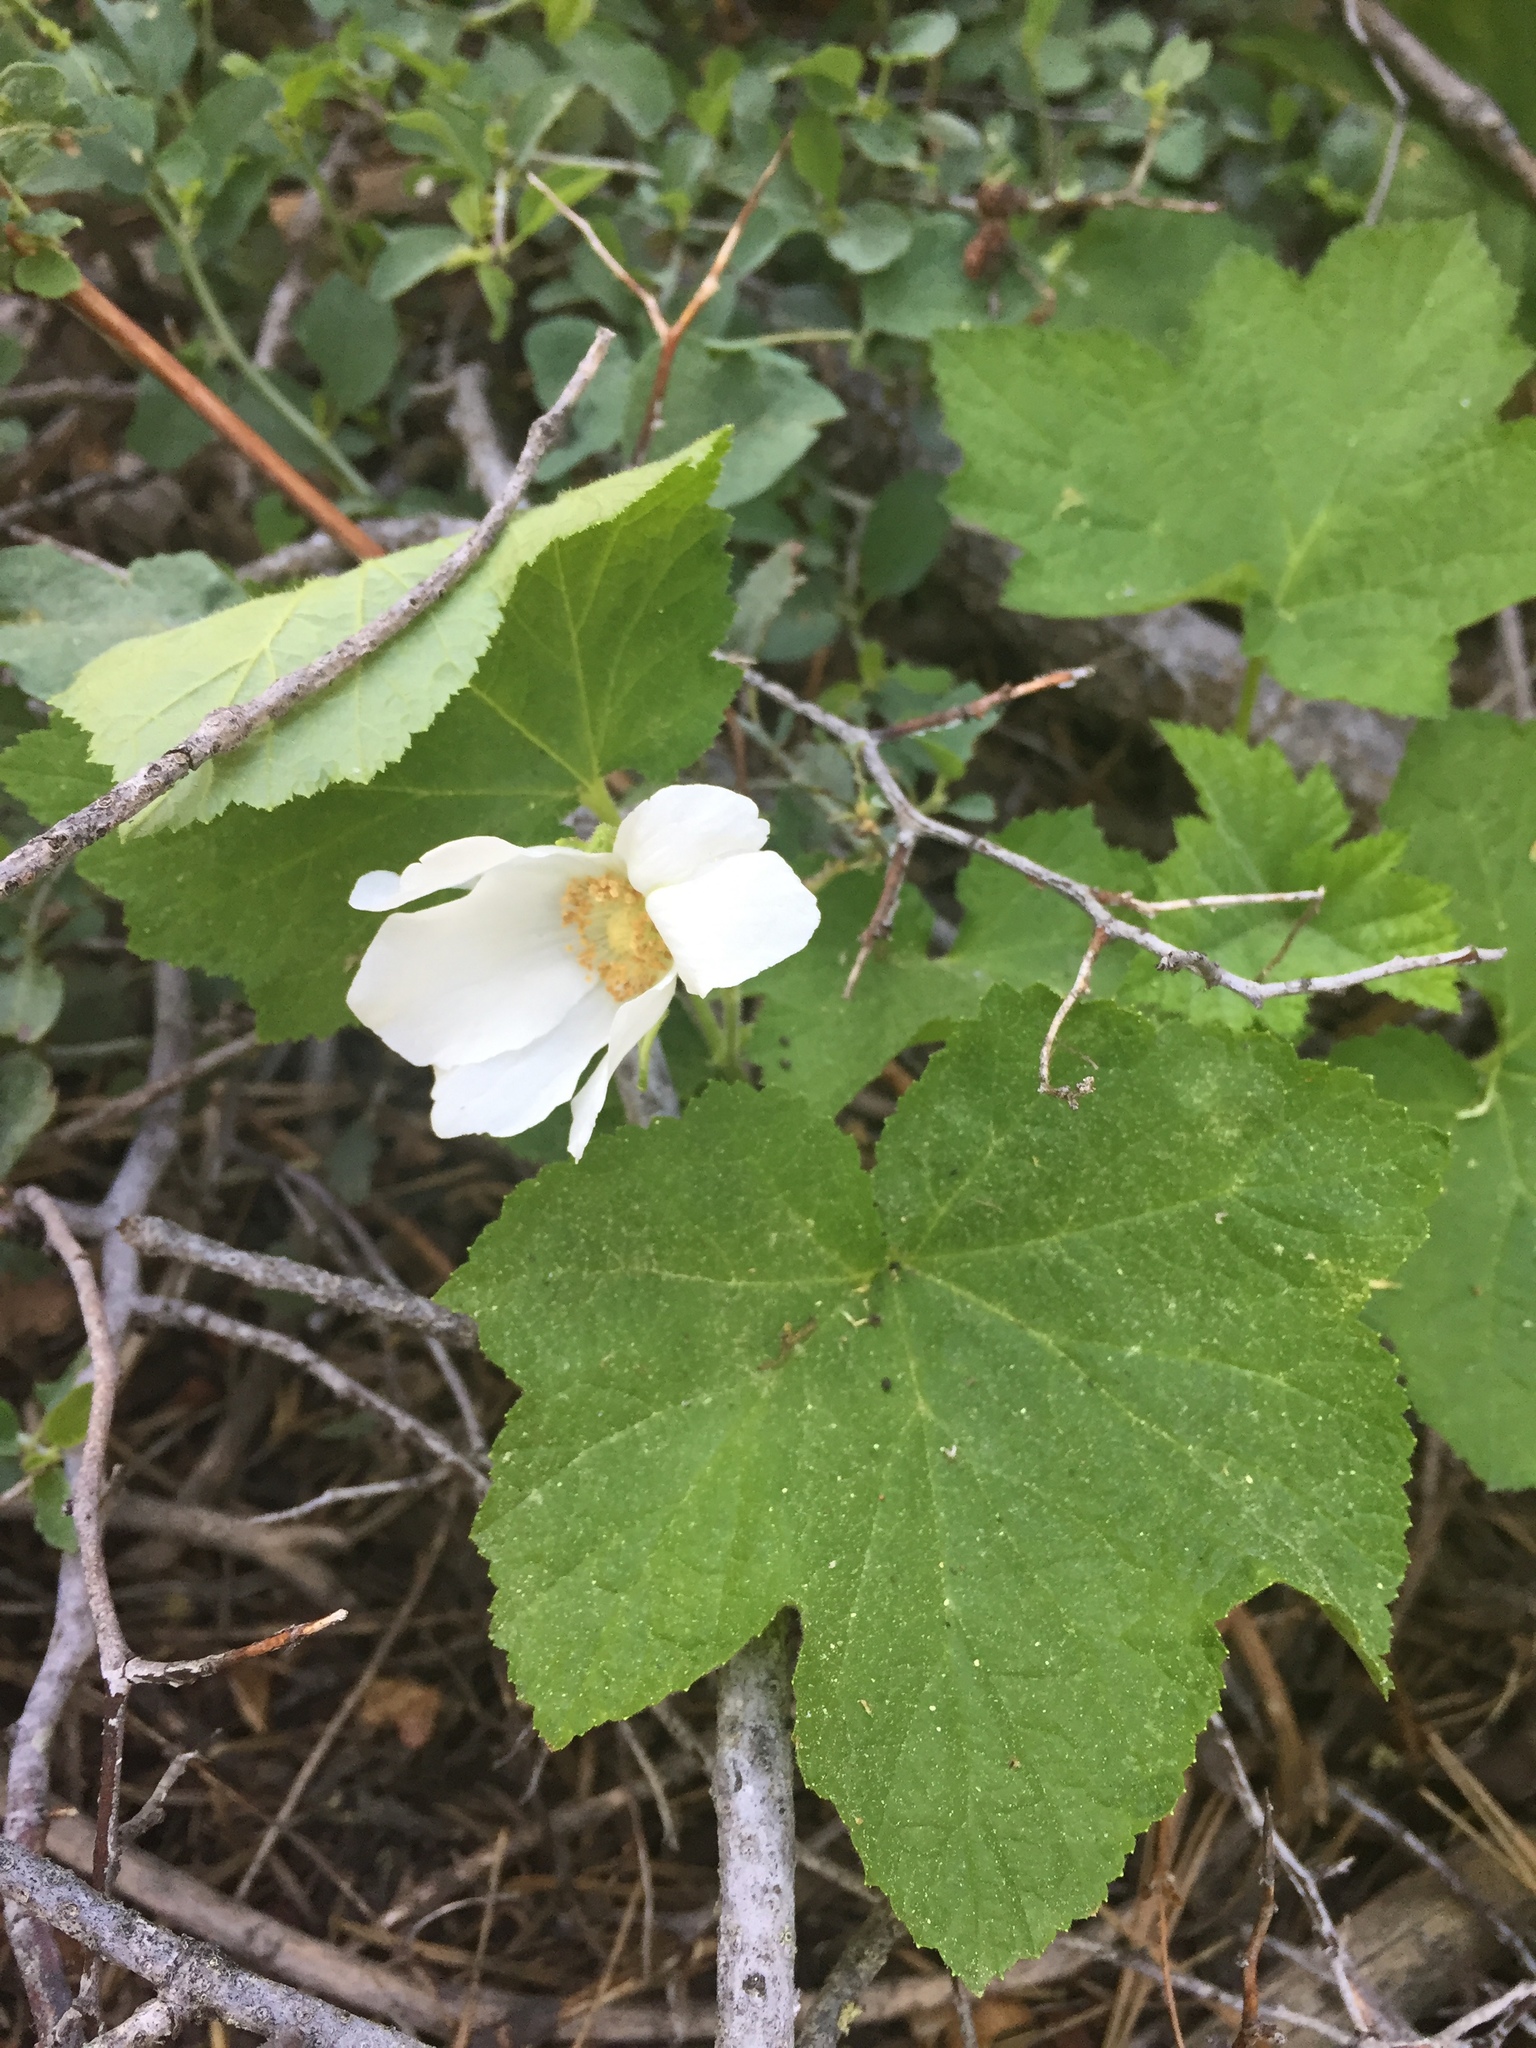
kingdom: Plantae
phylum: Tracheophyta
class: Magnoliopsida
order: Rosales
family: Rosaceae
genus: Rubus
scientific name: Rubus parviflorus
